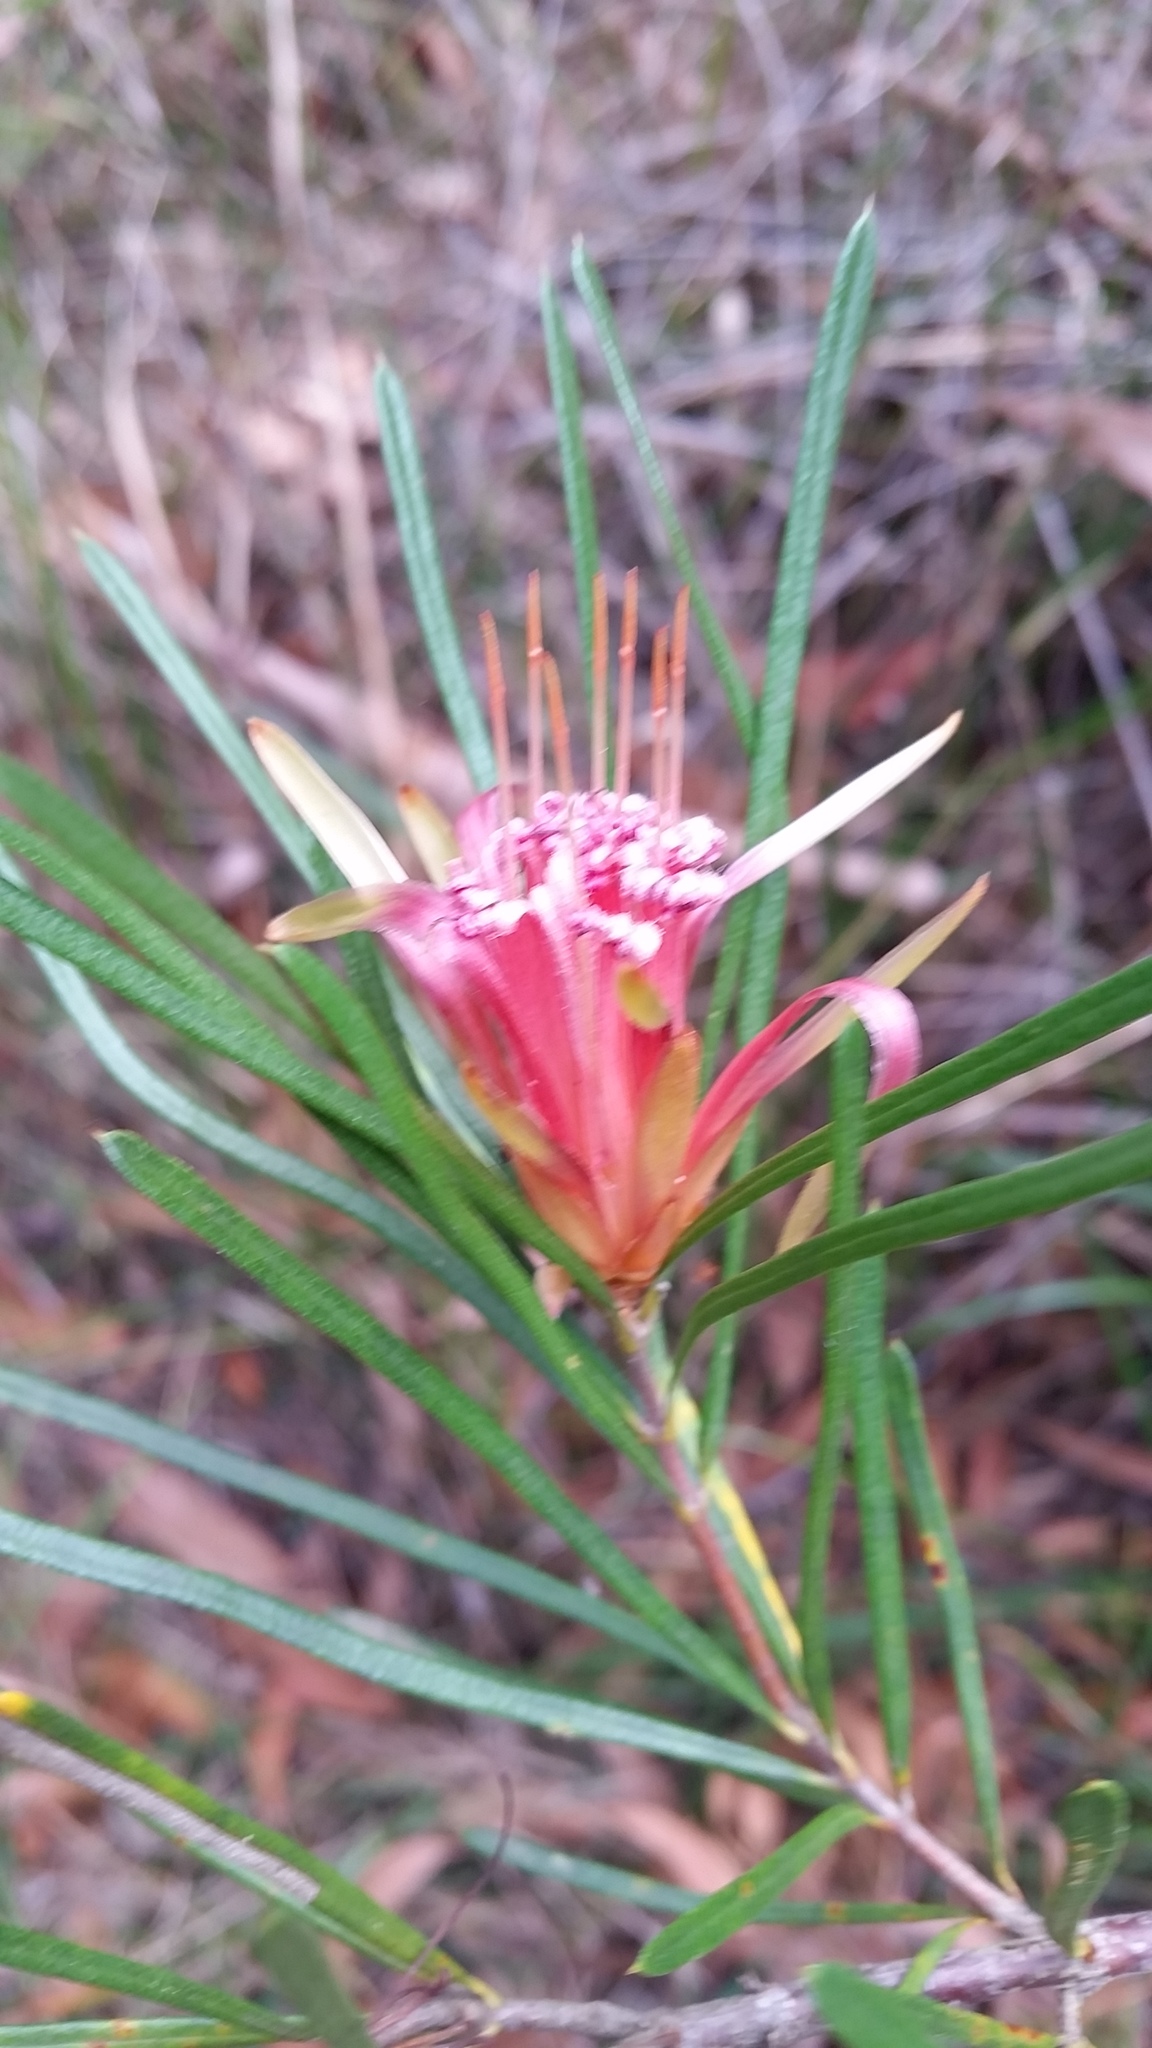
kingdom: Plantae
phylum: Tracheophyta
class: Magnoliopsida
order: Proteales
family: Proteaceae
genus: Lambertia
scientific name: Lambertia formosa
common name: Mountain-devil
